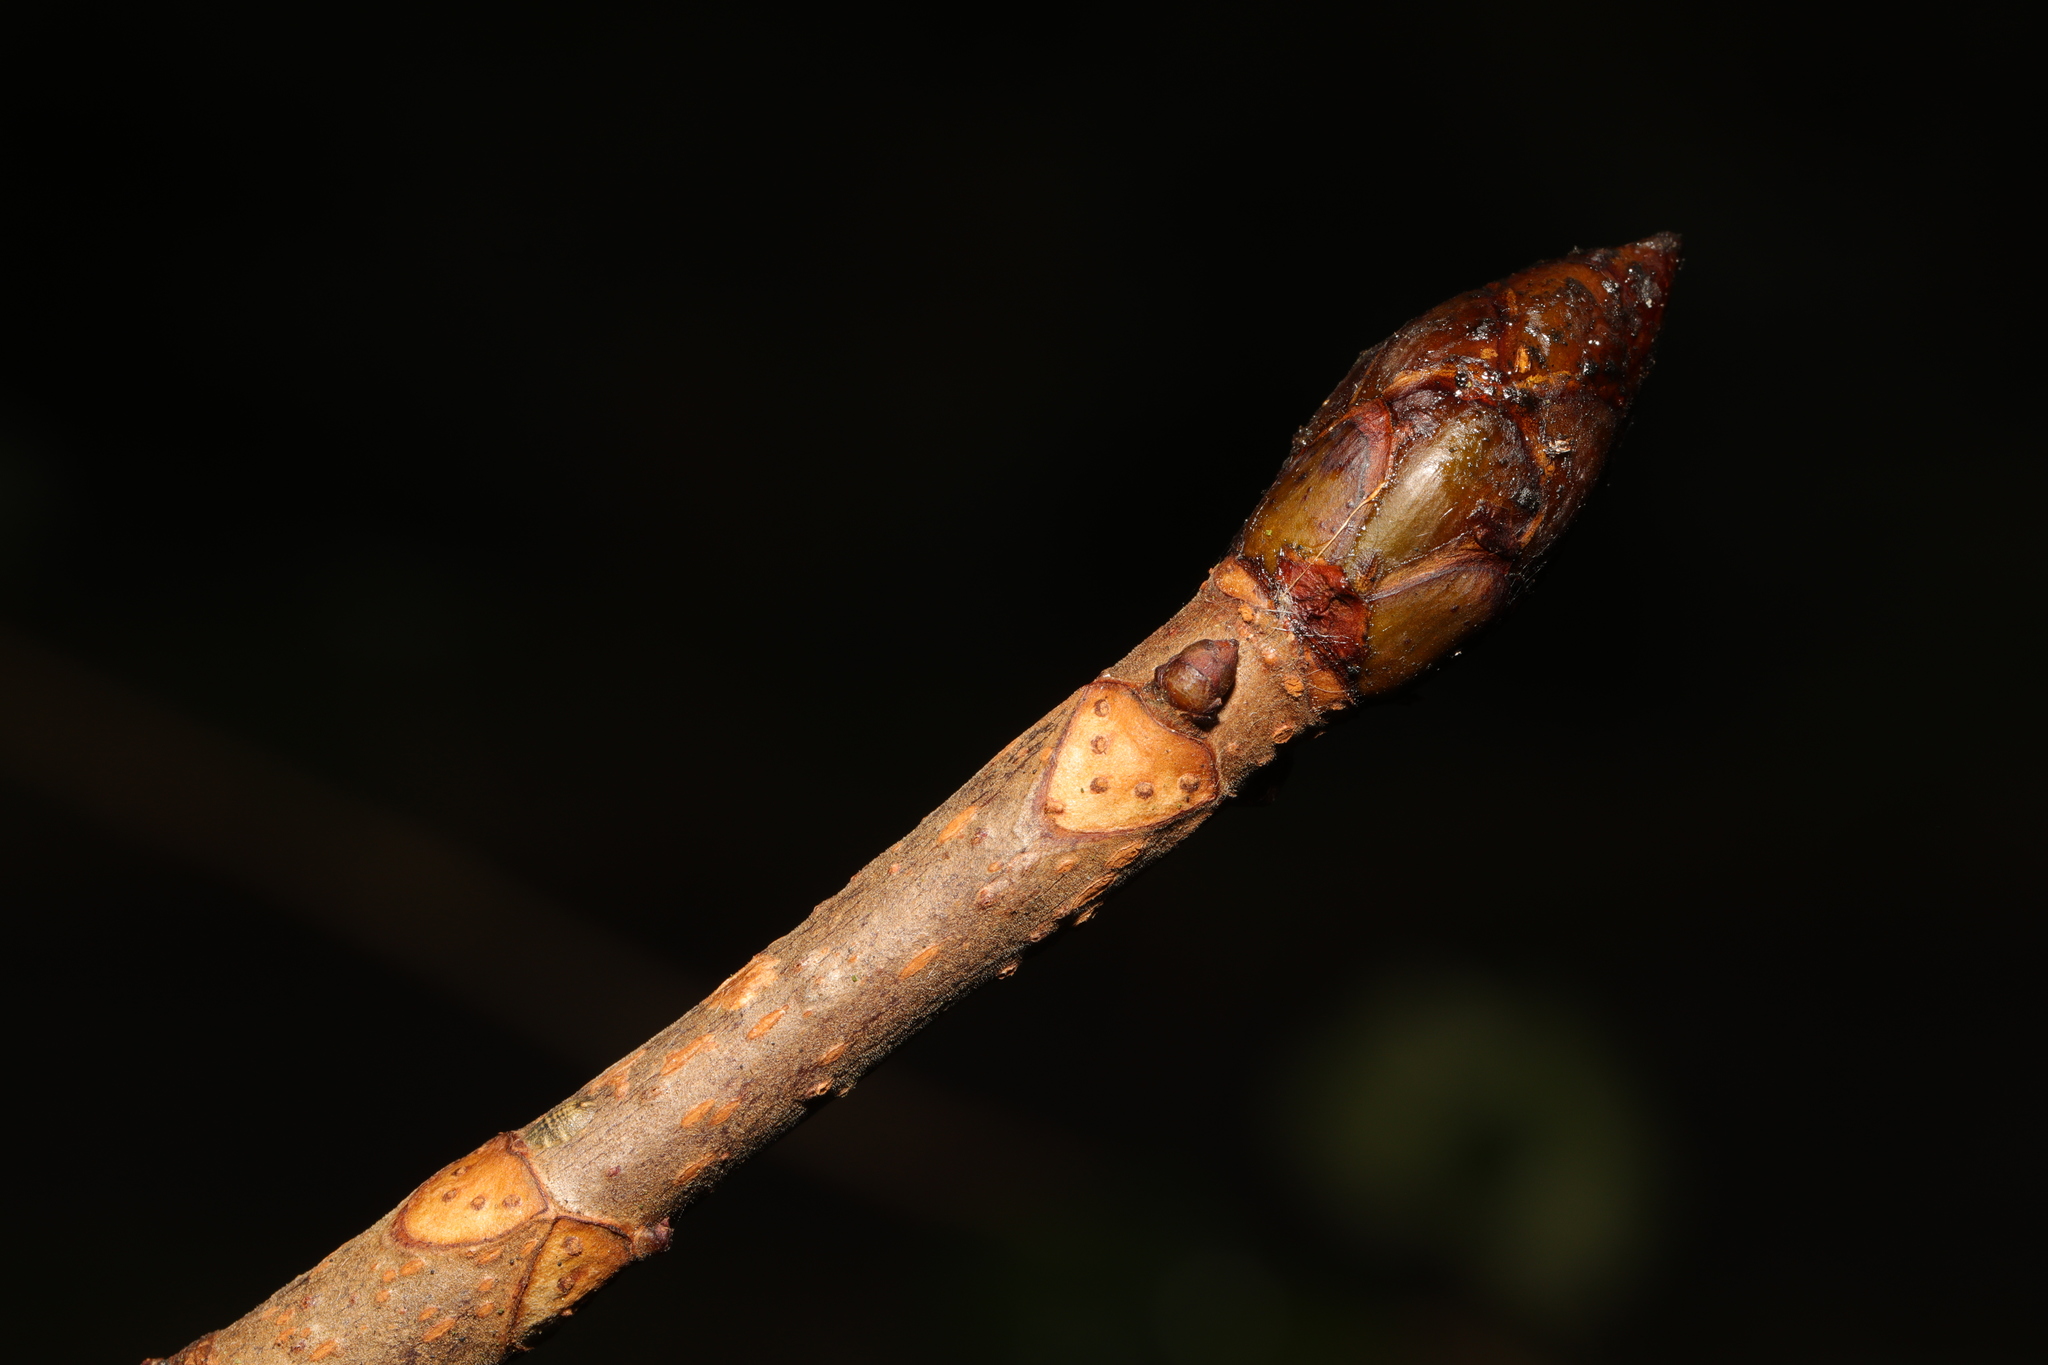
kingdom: Plantae
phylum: Tracheophyta
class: Magnoliopsida
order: Sapindales
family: Sapindaceae
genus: Aesculus
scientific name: Aesculus hippocastanum
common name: Horse-chestnut
